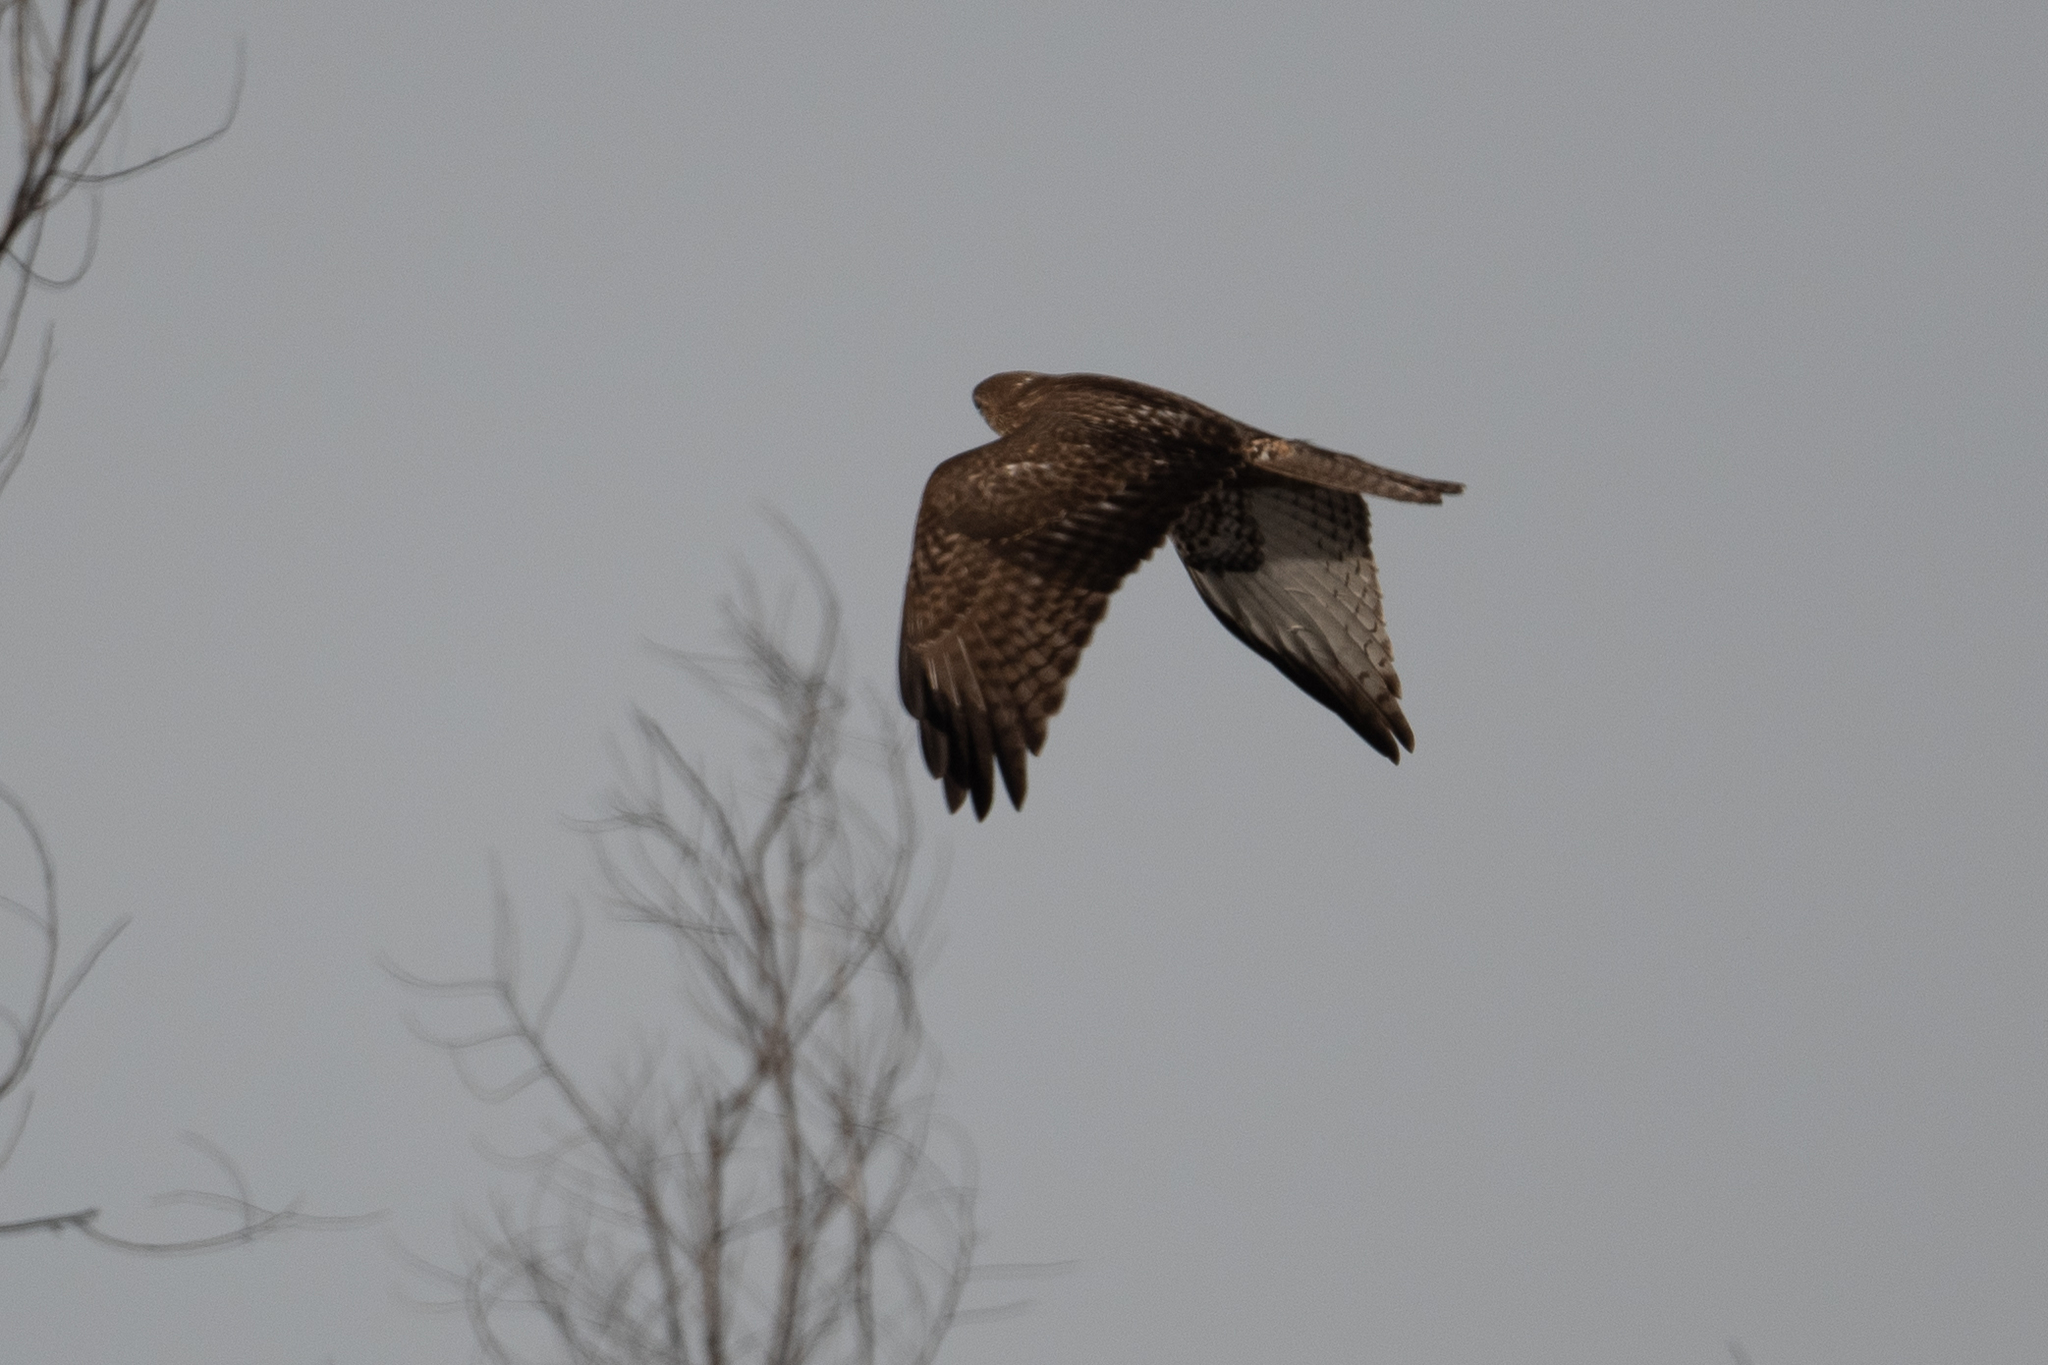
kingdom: Animalia
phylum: Chordata
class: Aves
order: Accipitriformes
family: Accipitridae
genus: Buteo
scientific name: Buteo jamaicensis
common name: Red-tailed hawk
